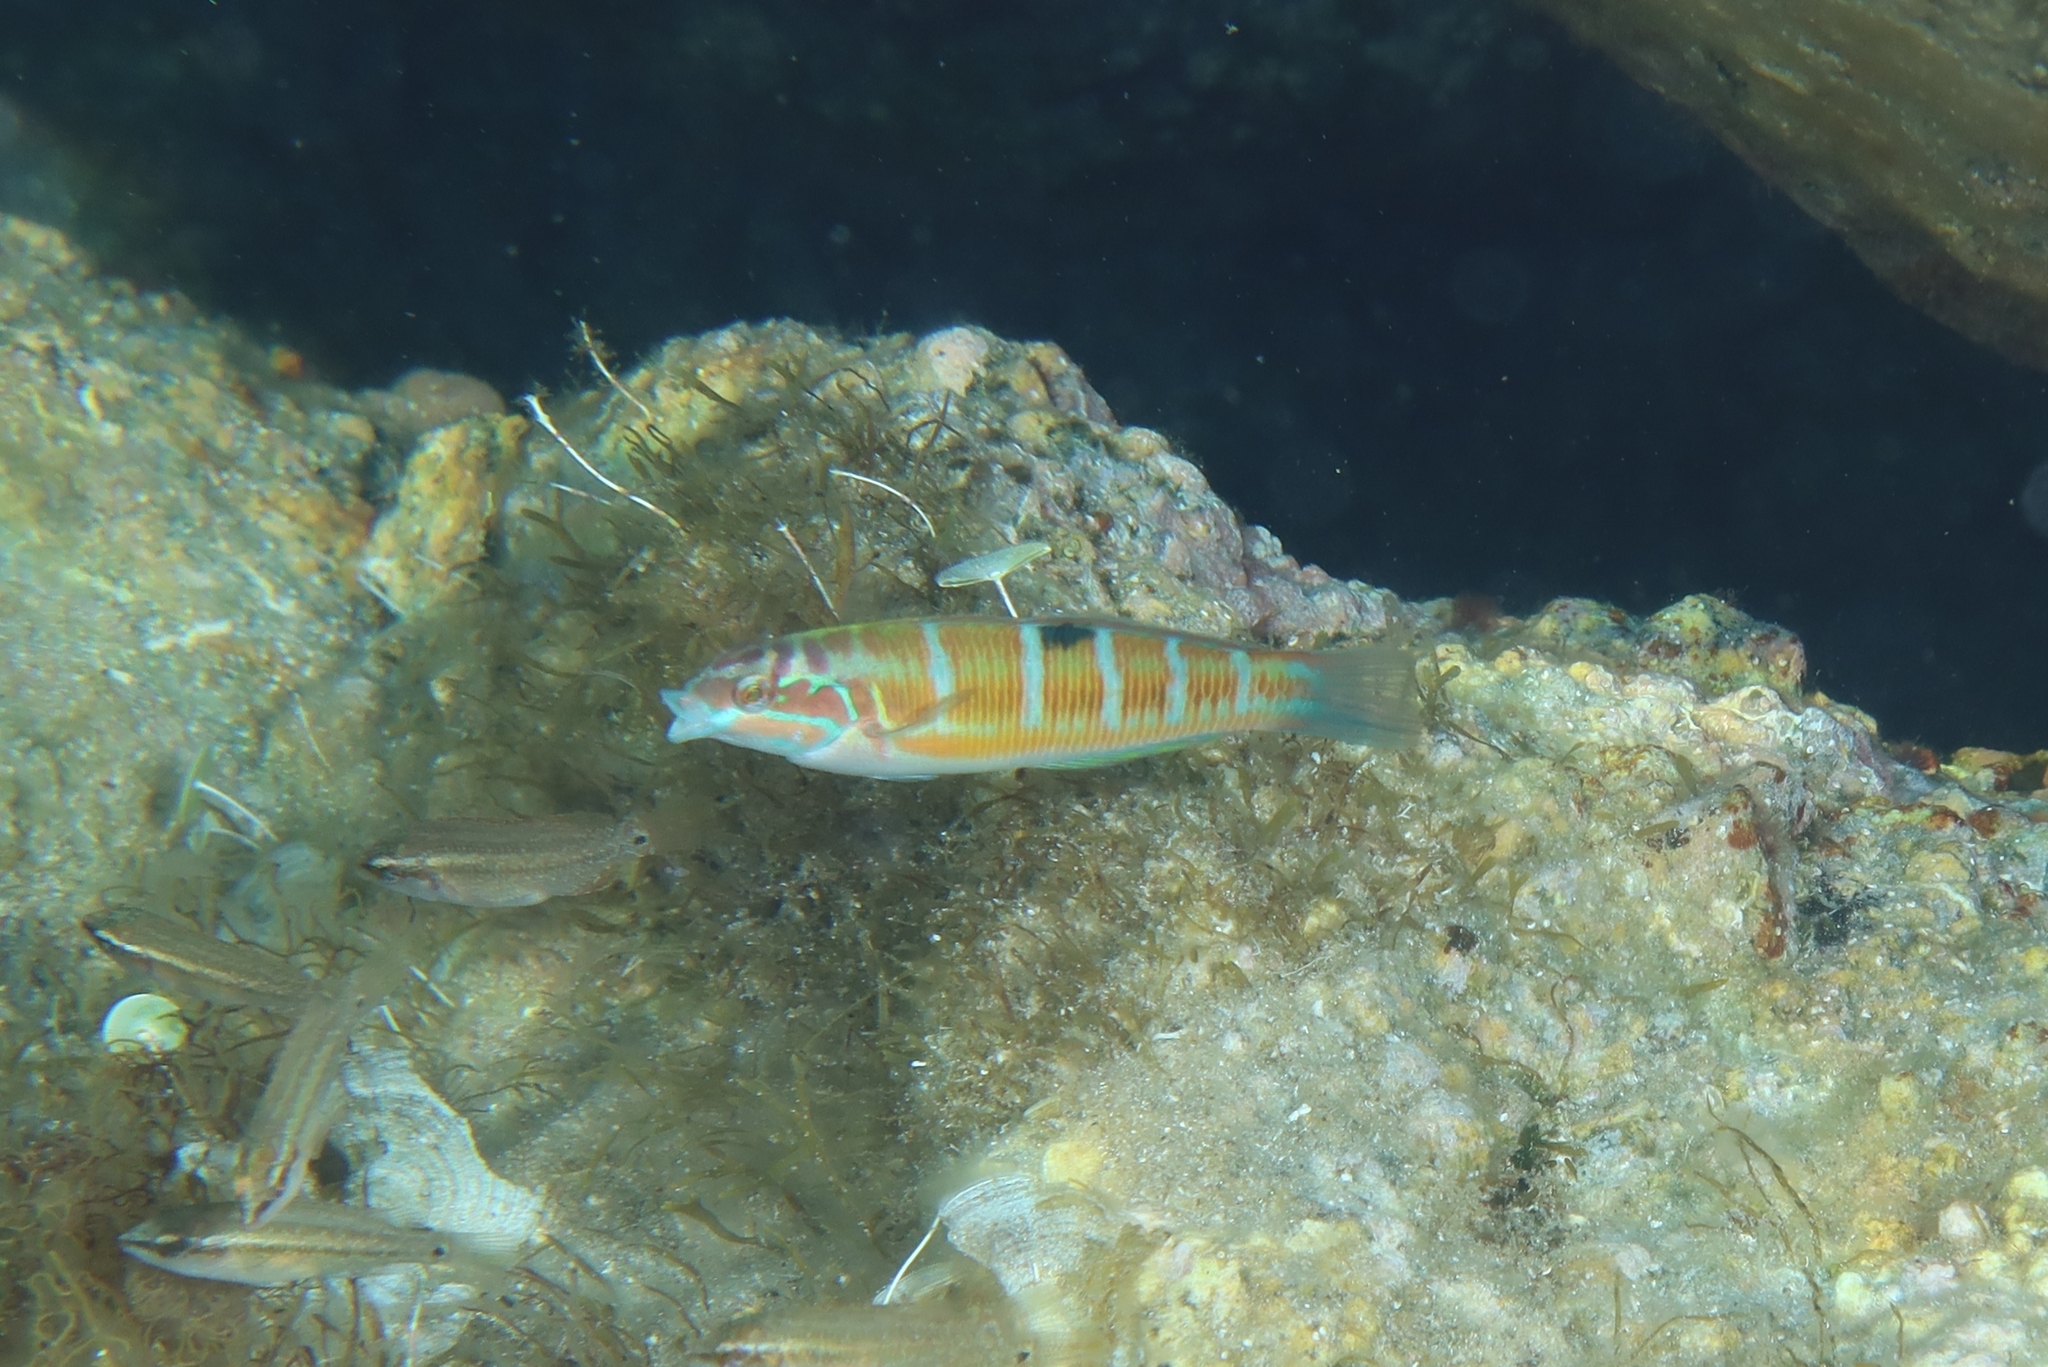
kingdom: Animalia
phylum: Chordata
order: Perciformes
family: Labridae
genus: Thalassoma
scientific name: Thalassoma pavo
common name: Ornate wrasse
